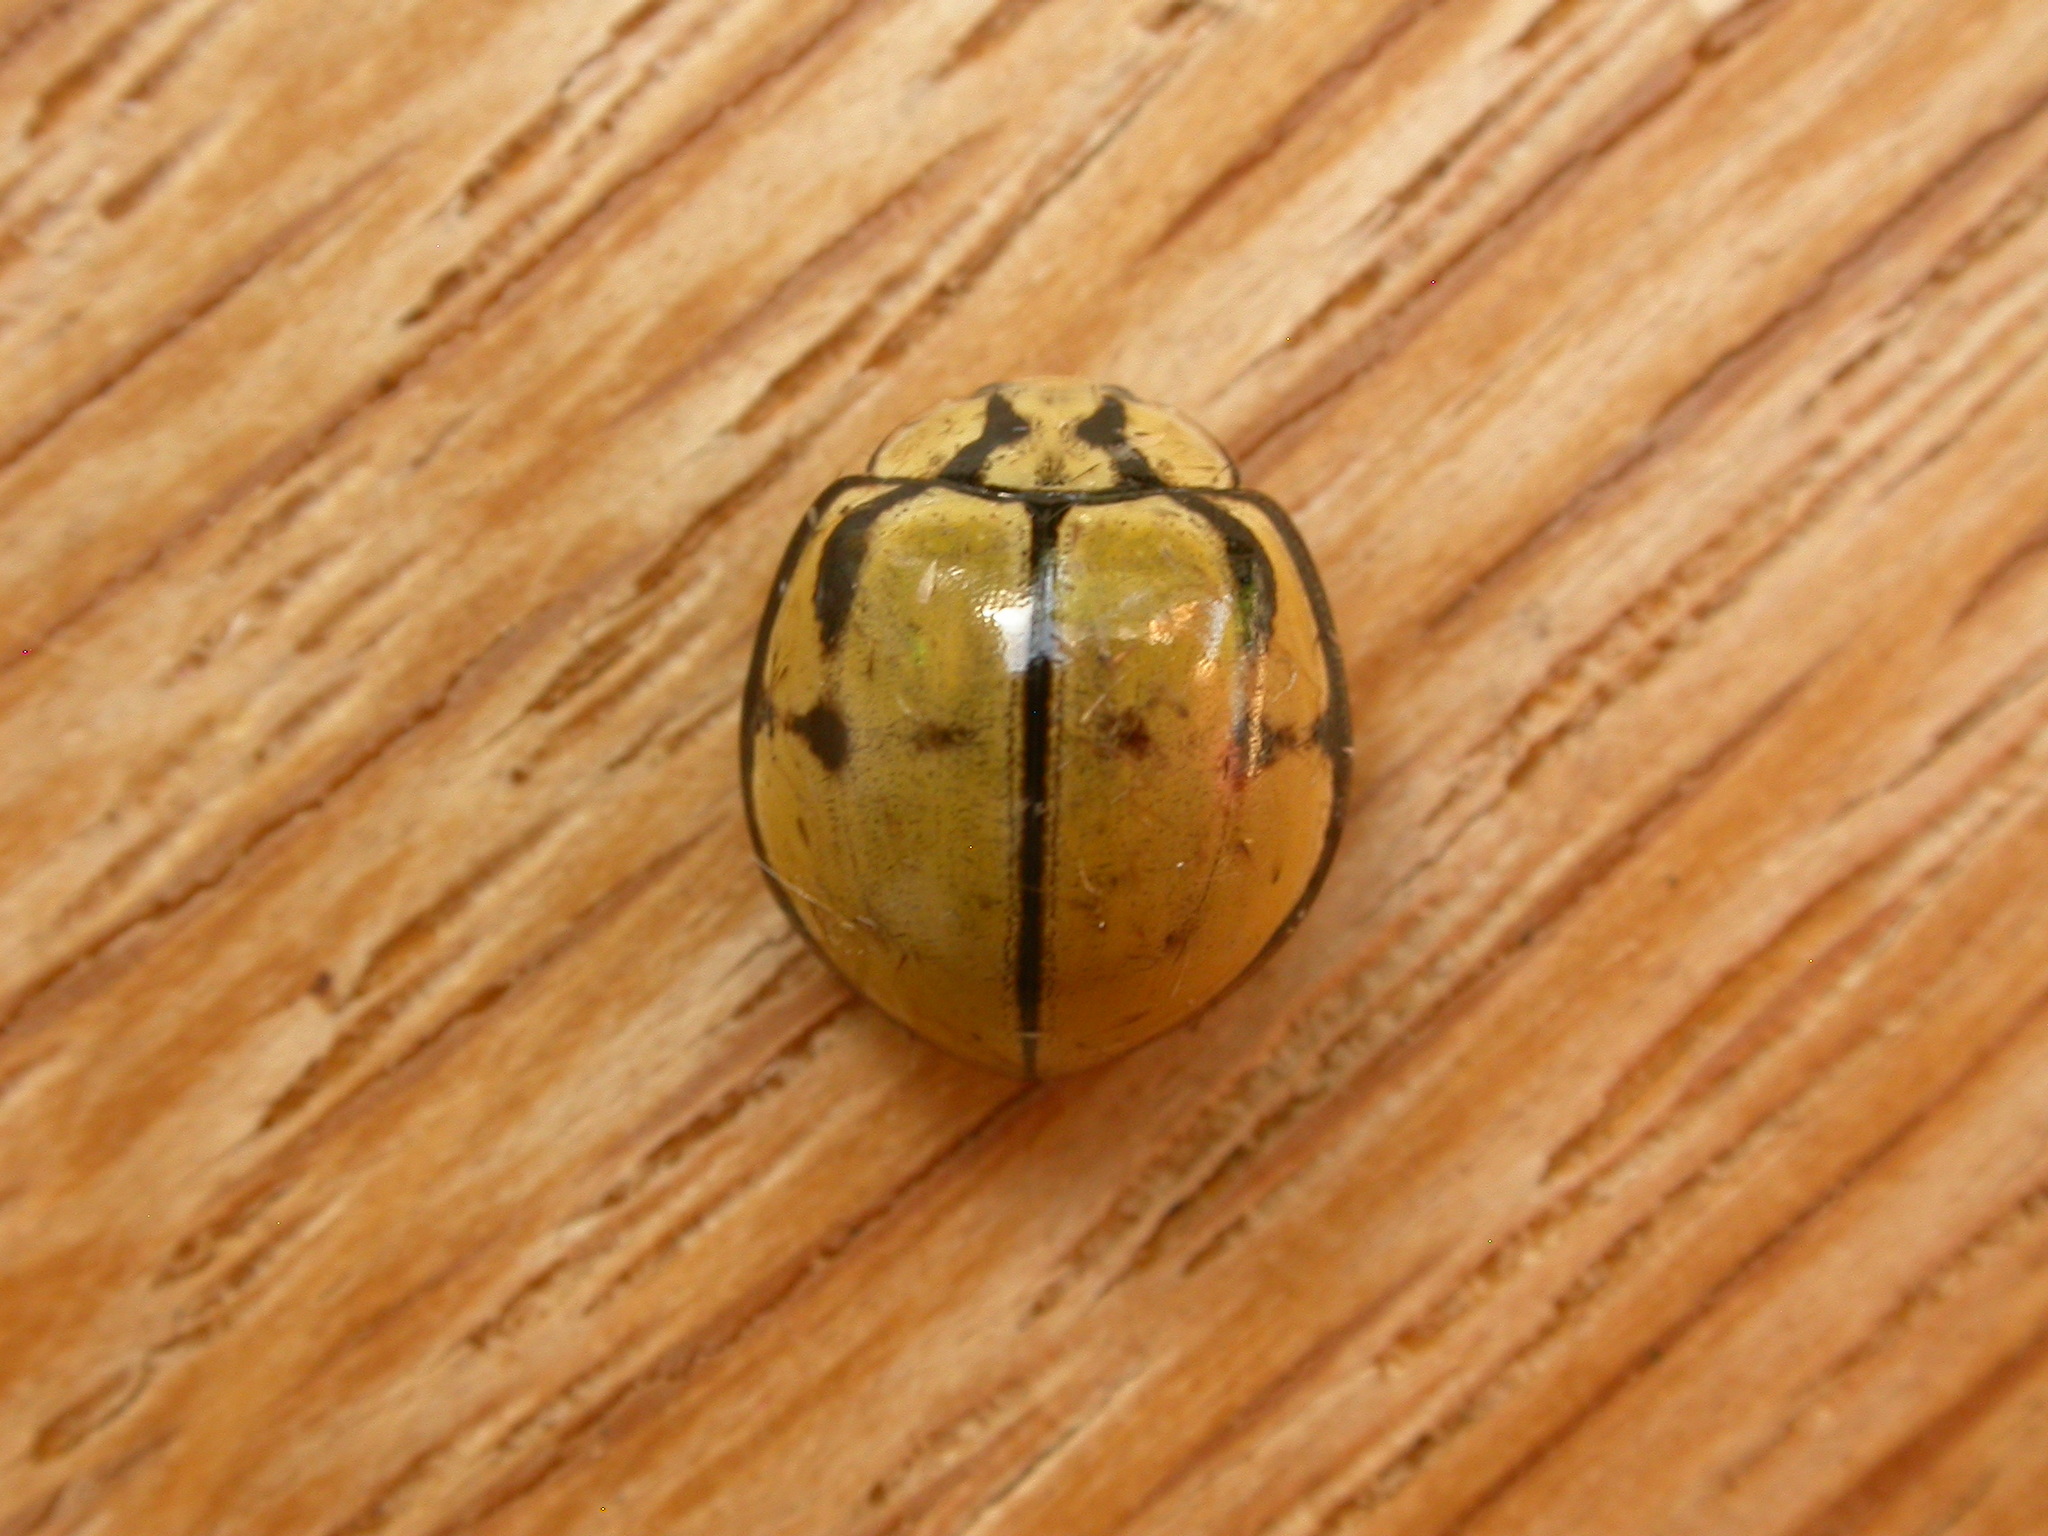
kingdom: Animalia
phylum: Arthropoda
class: Insecta
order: Coleoptera
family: Coccinellidae
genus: Harmonia
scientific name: Harmonia
